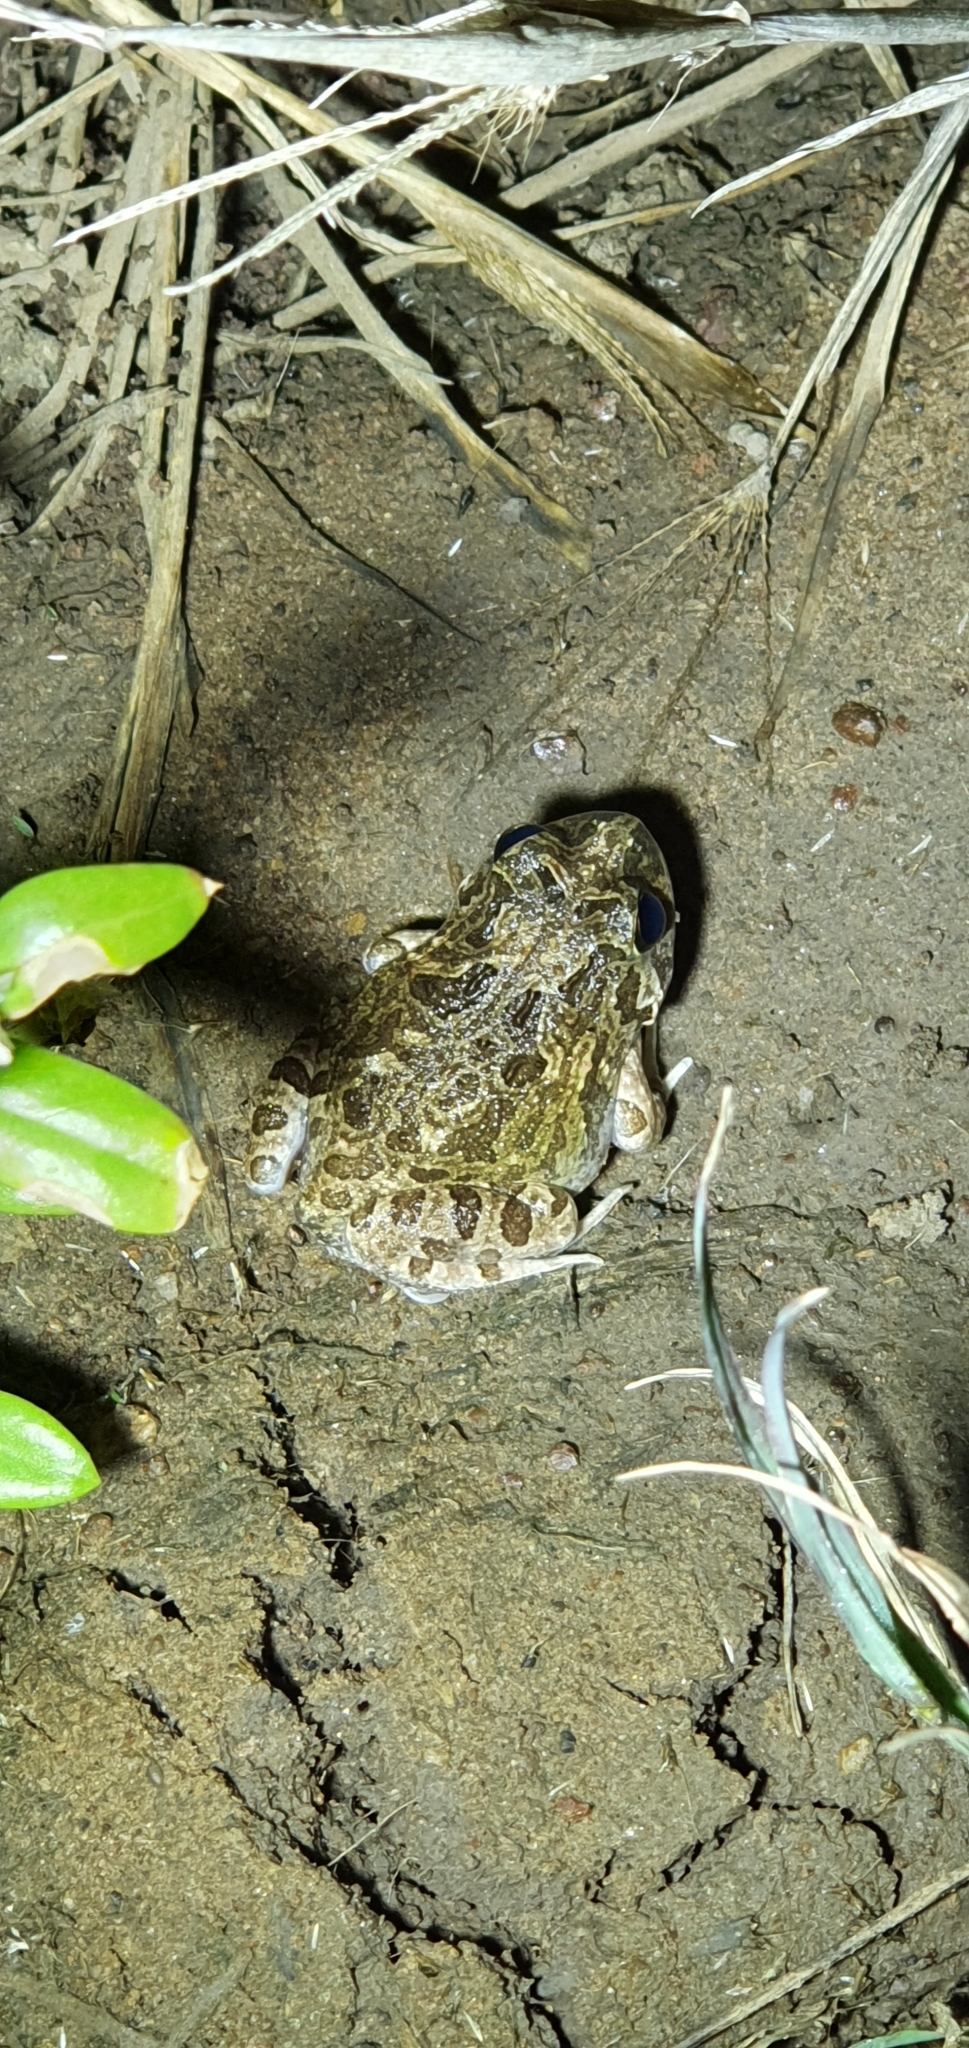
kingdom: Animalia
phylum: Chordata
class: Amphibia
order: Anura
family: Limnodynastidae
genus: Platyplectrum
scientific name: Platyplectrum ornatum
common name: Ornate burrowing frog
